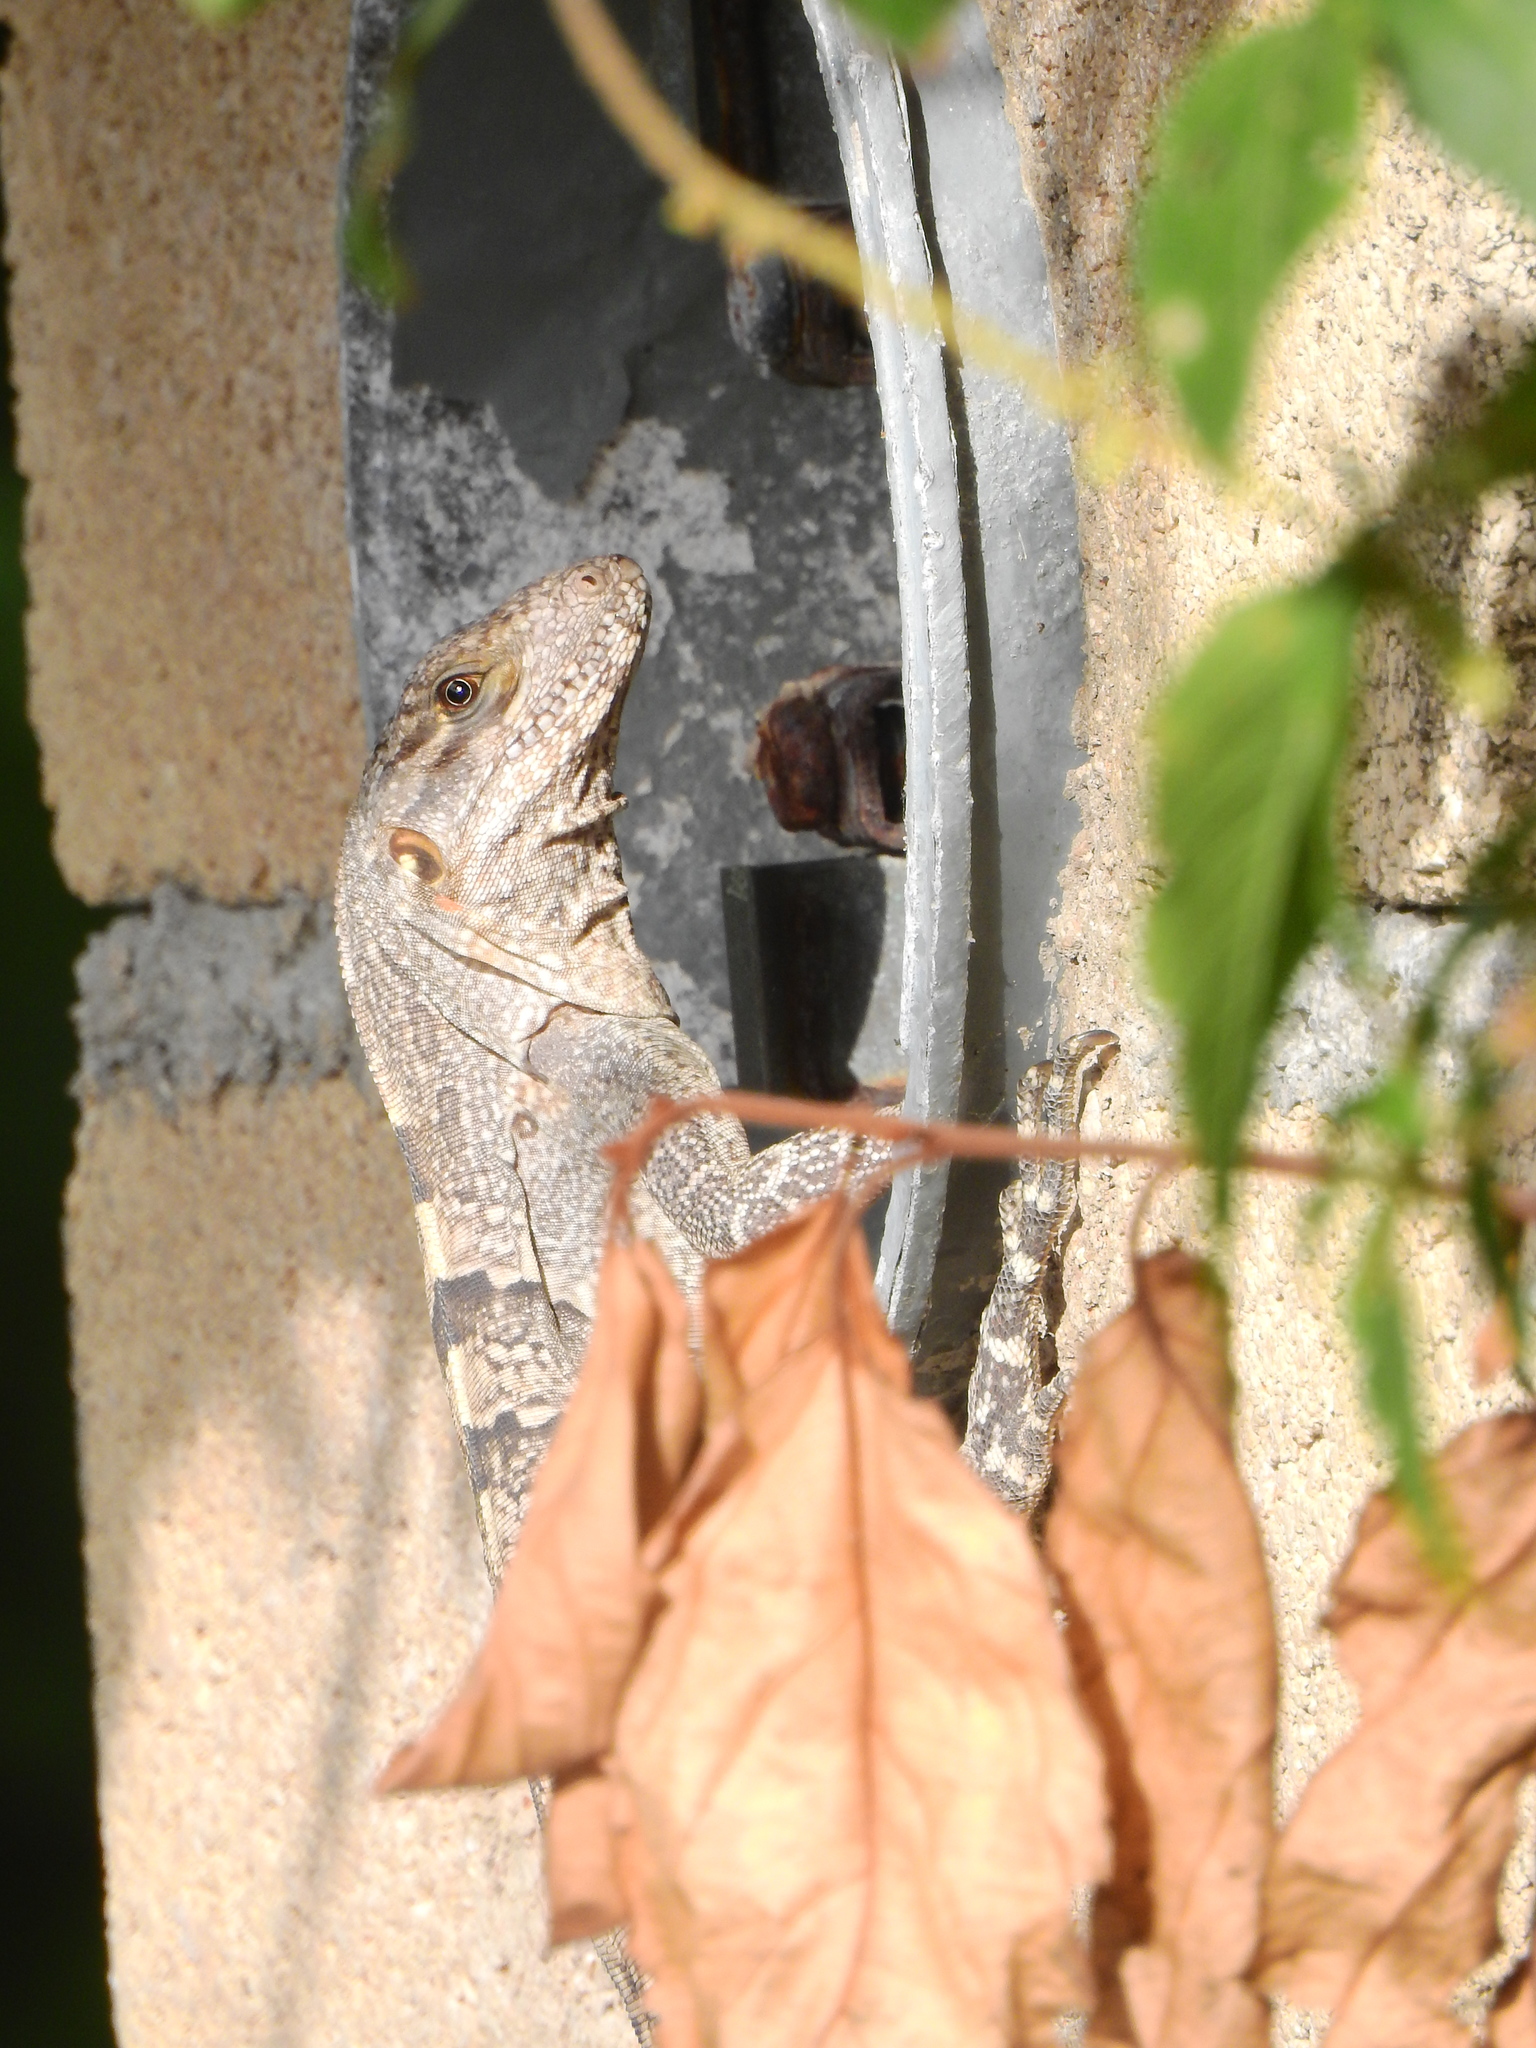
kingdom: Animalia
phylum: Chordata
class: Squamata
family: Iguanidae
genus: Ctenosaura
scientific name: Ctenosaura similis
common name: Black spiny-tailed iguana
